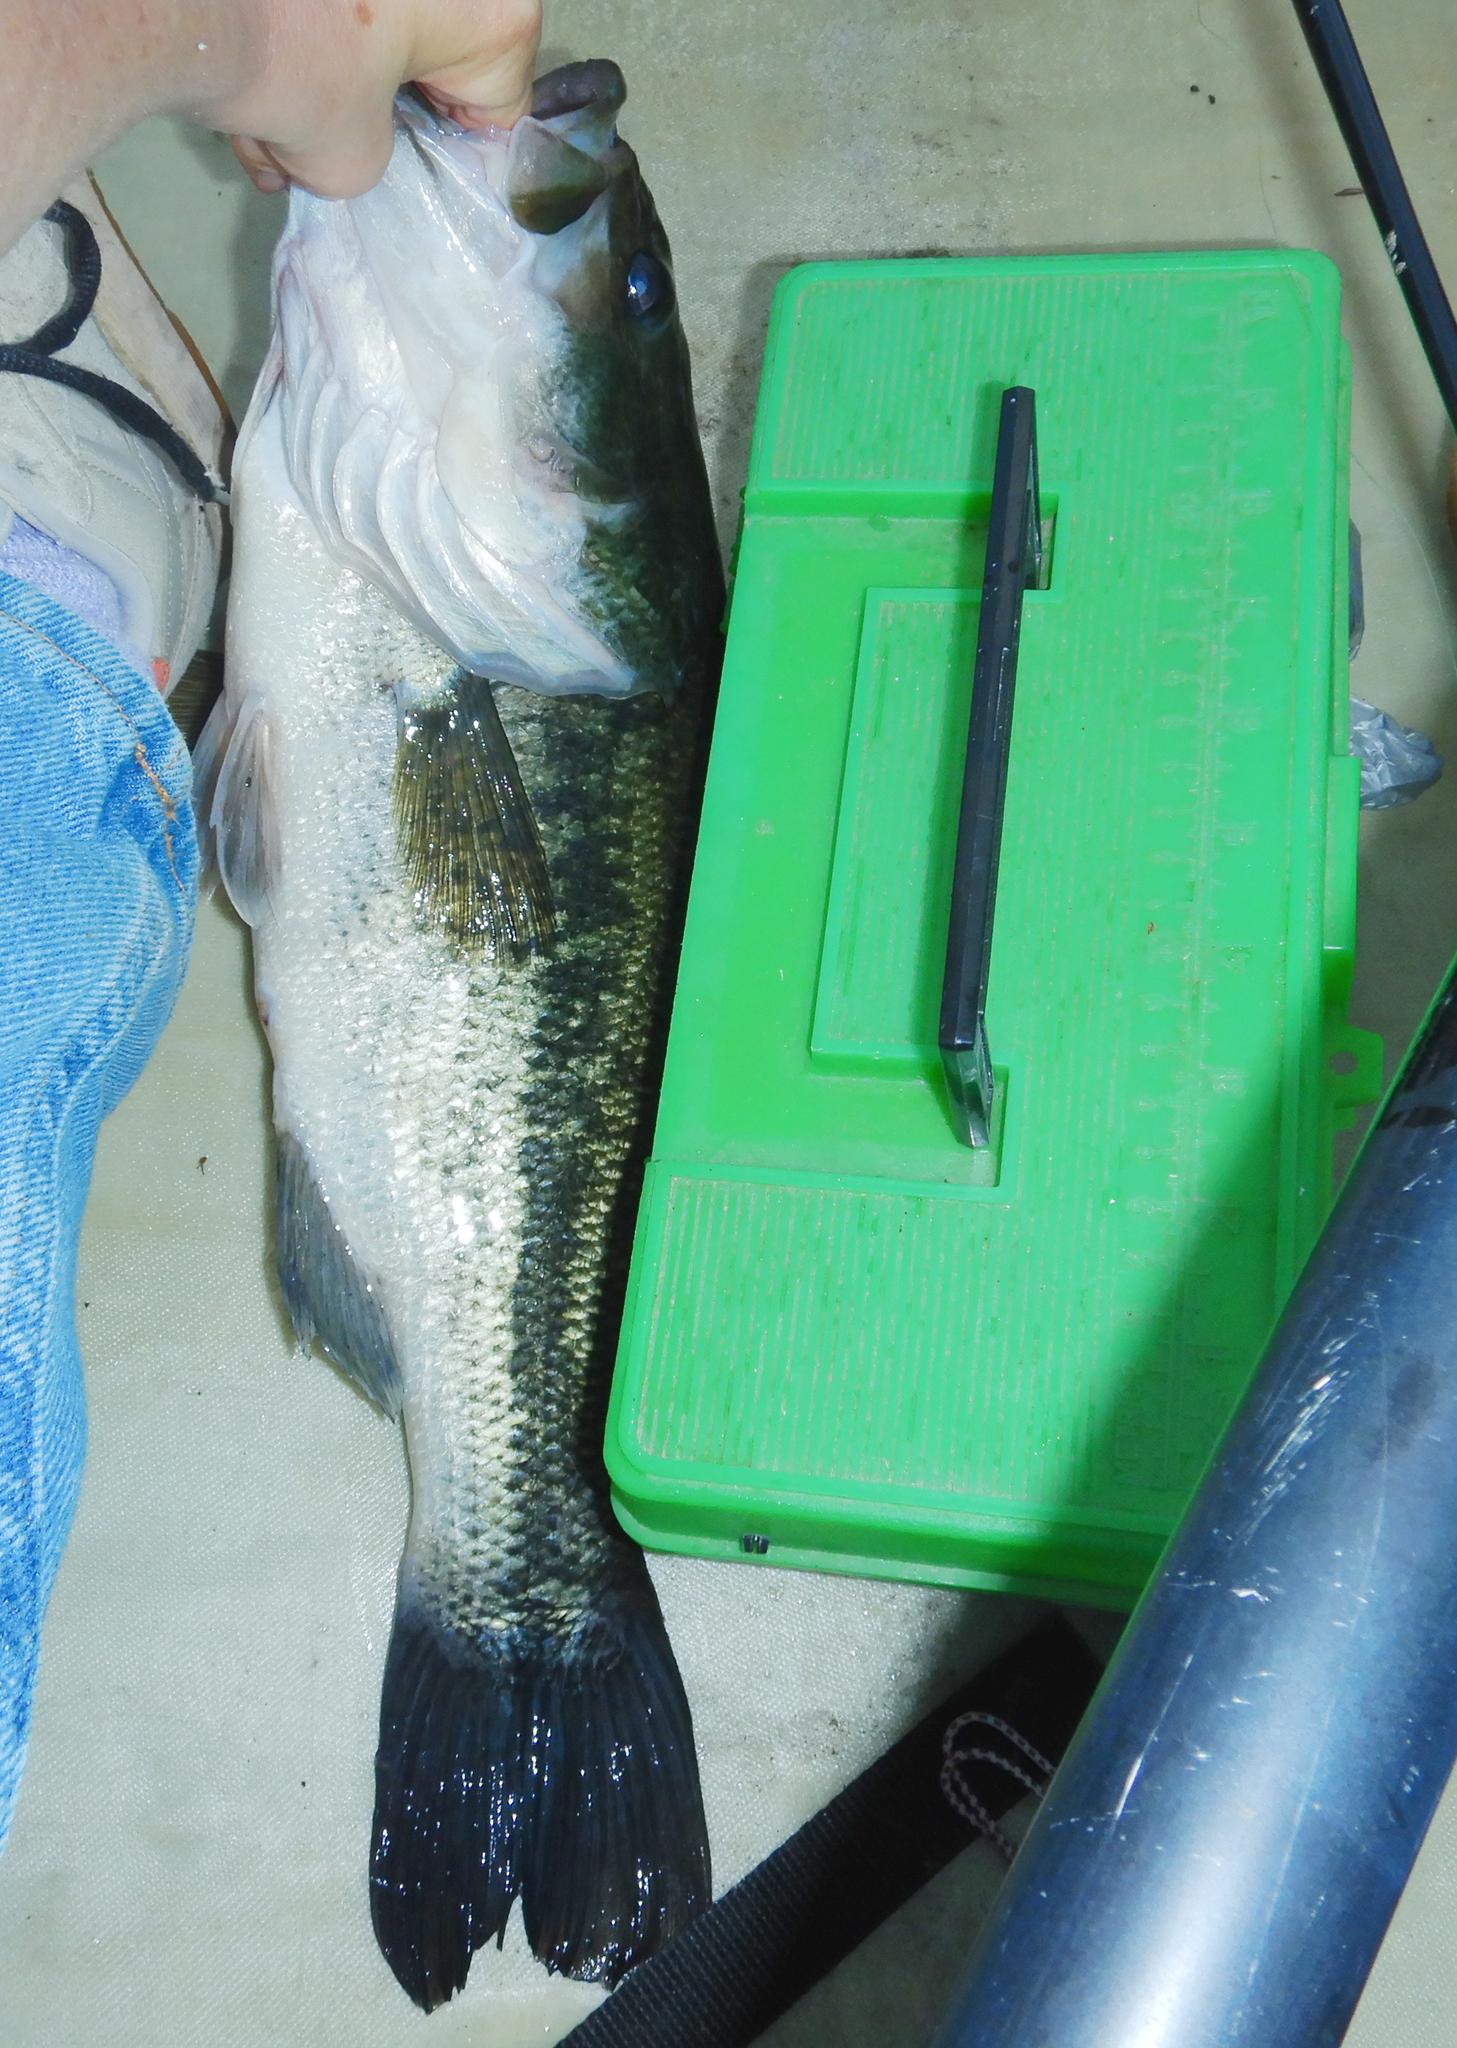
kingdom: Animalia
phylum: Chordata
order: Perciformes
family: Centrarchidae
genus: Micropterus
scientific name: Micropterus
